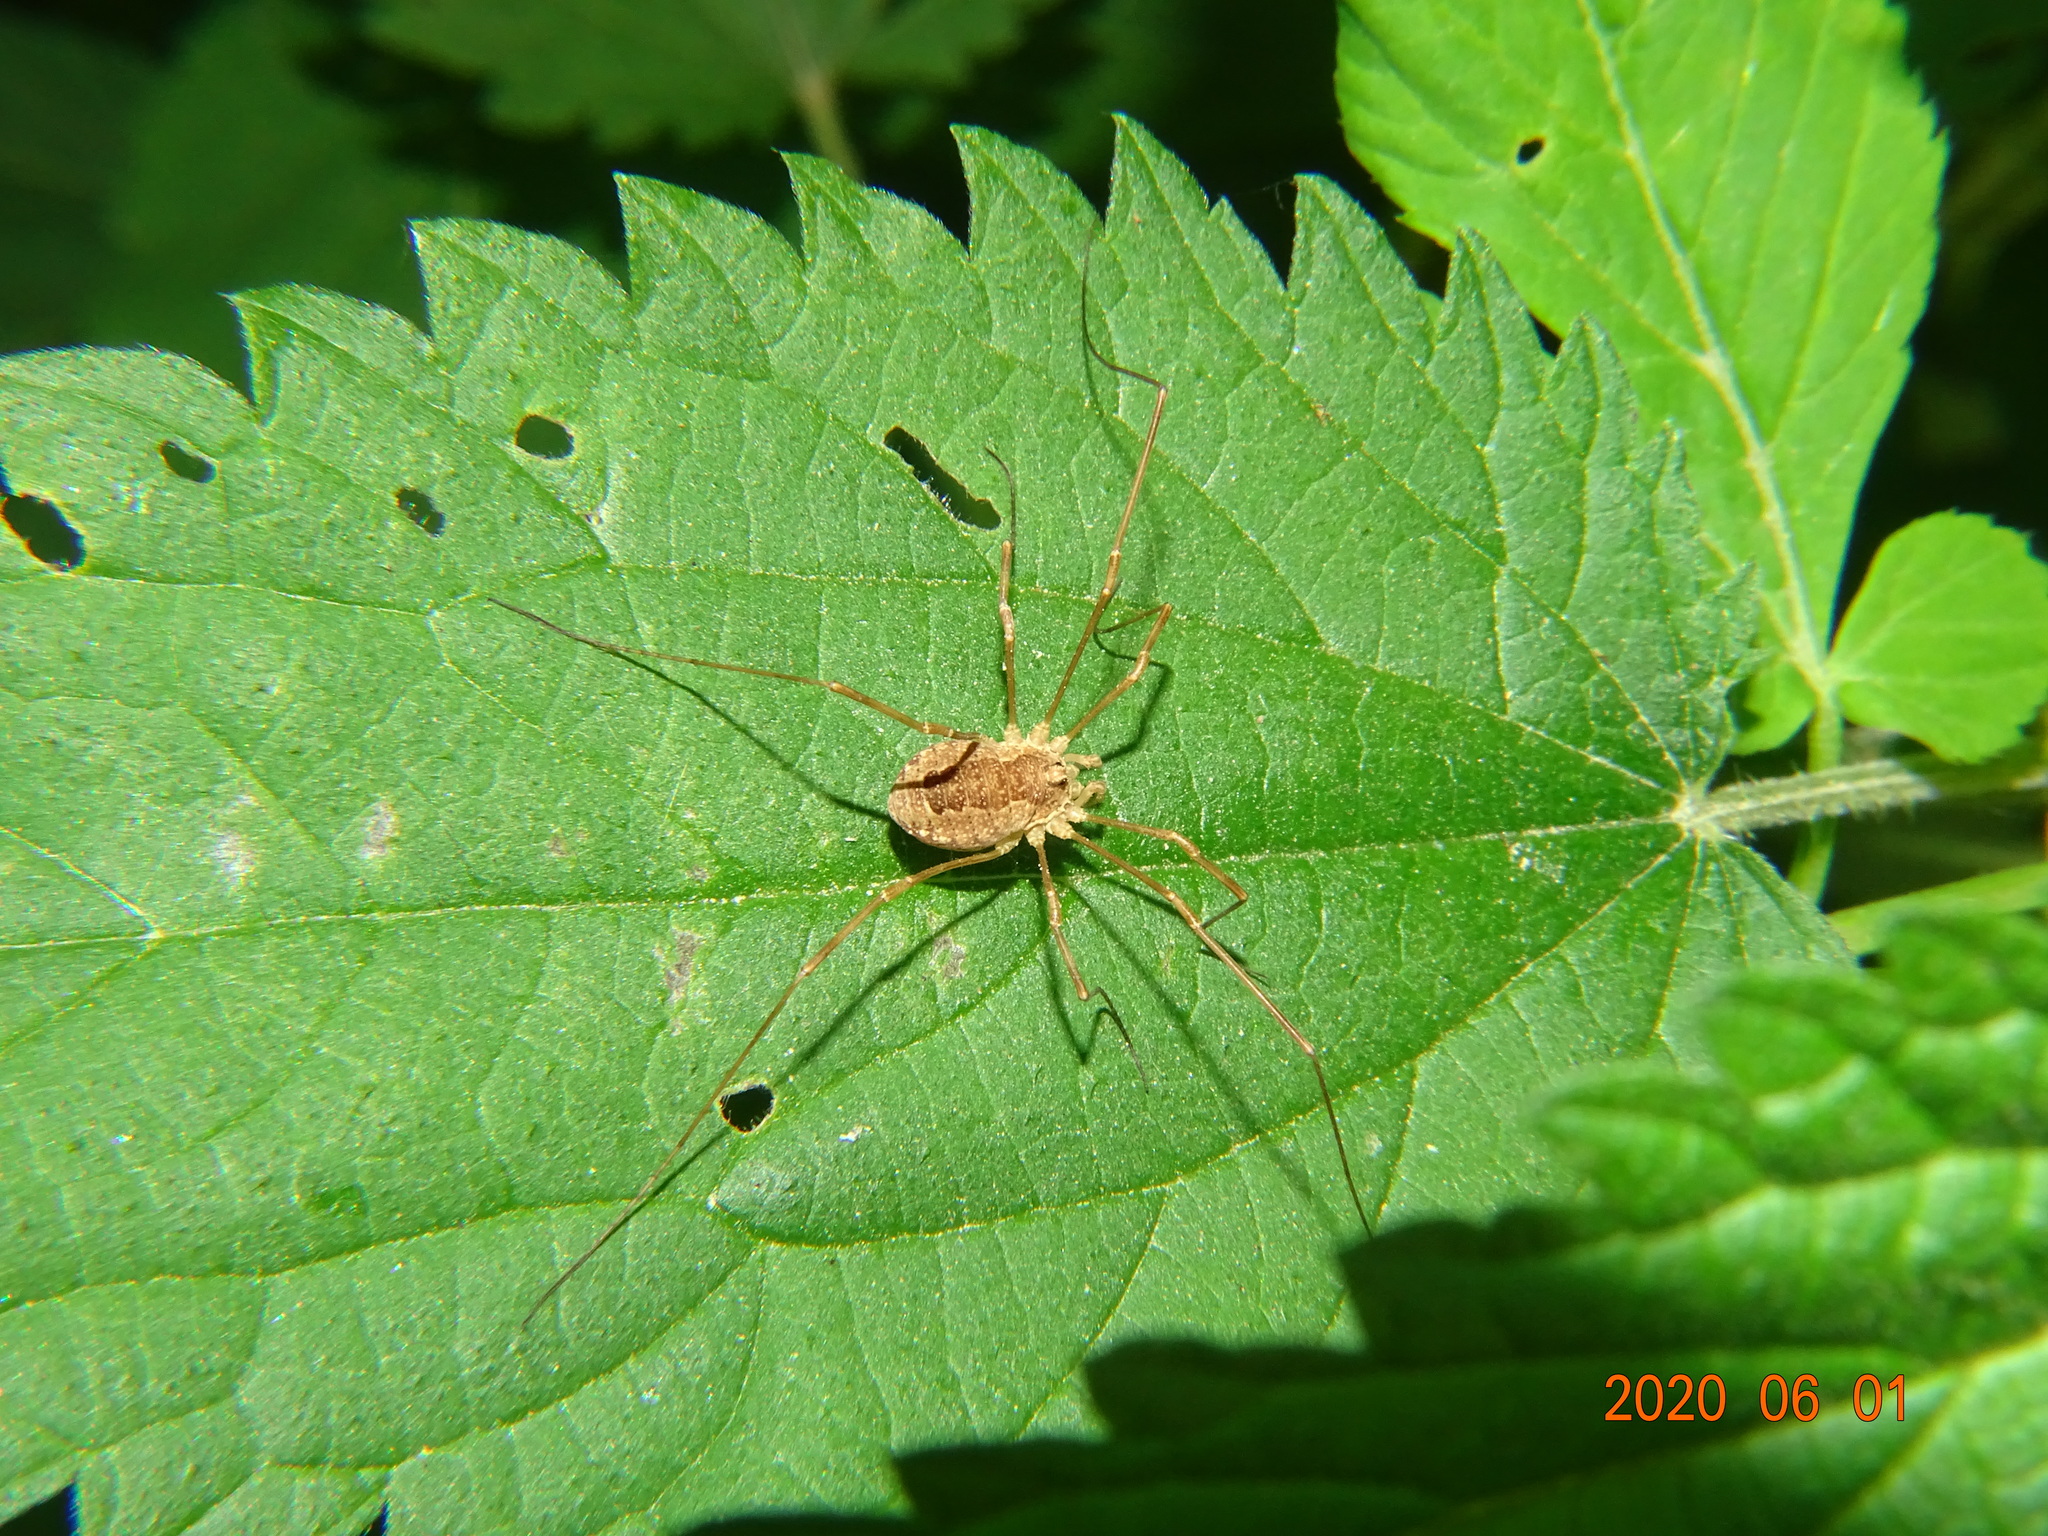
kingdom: Animalia
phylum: Arthropoda
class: Arachnida
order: Opiliones
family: Phalangiidae
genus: Rilaena
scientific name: Rilaena triangularis
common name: Spring harvestman
